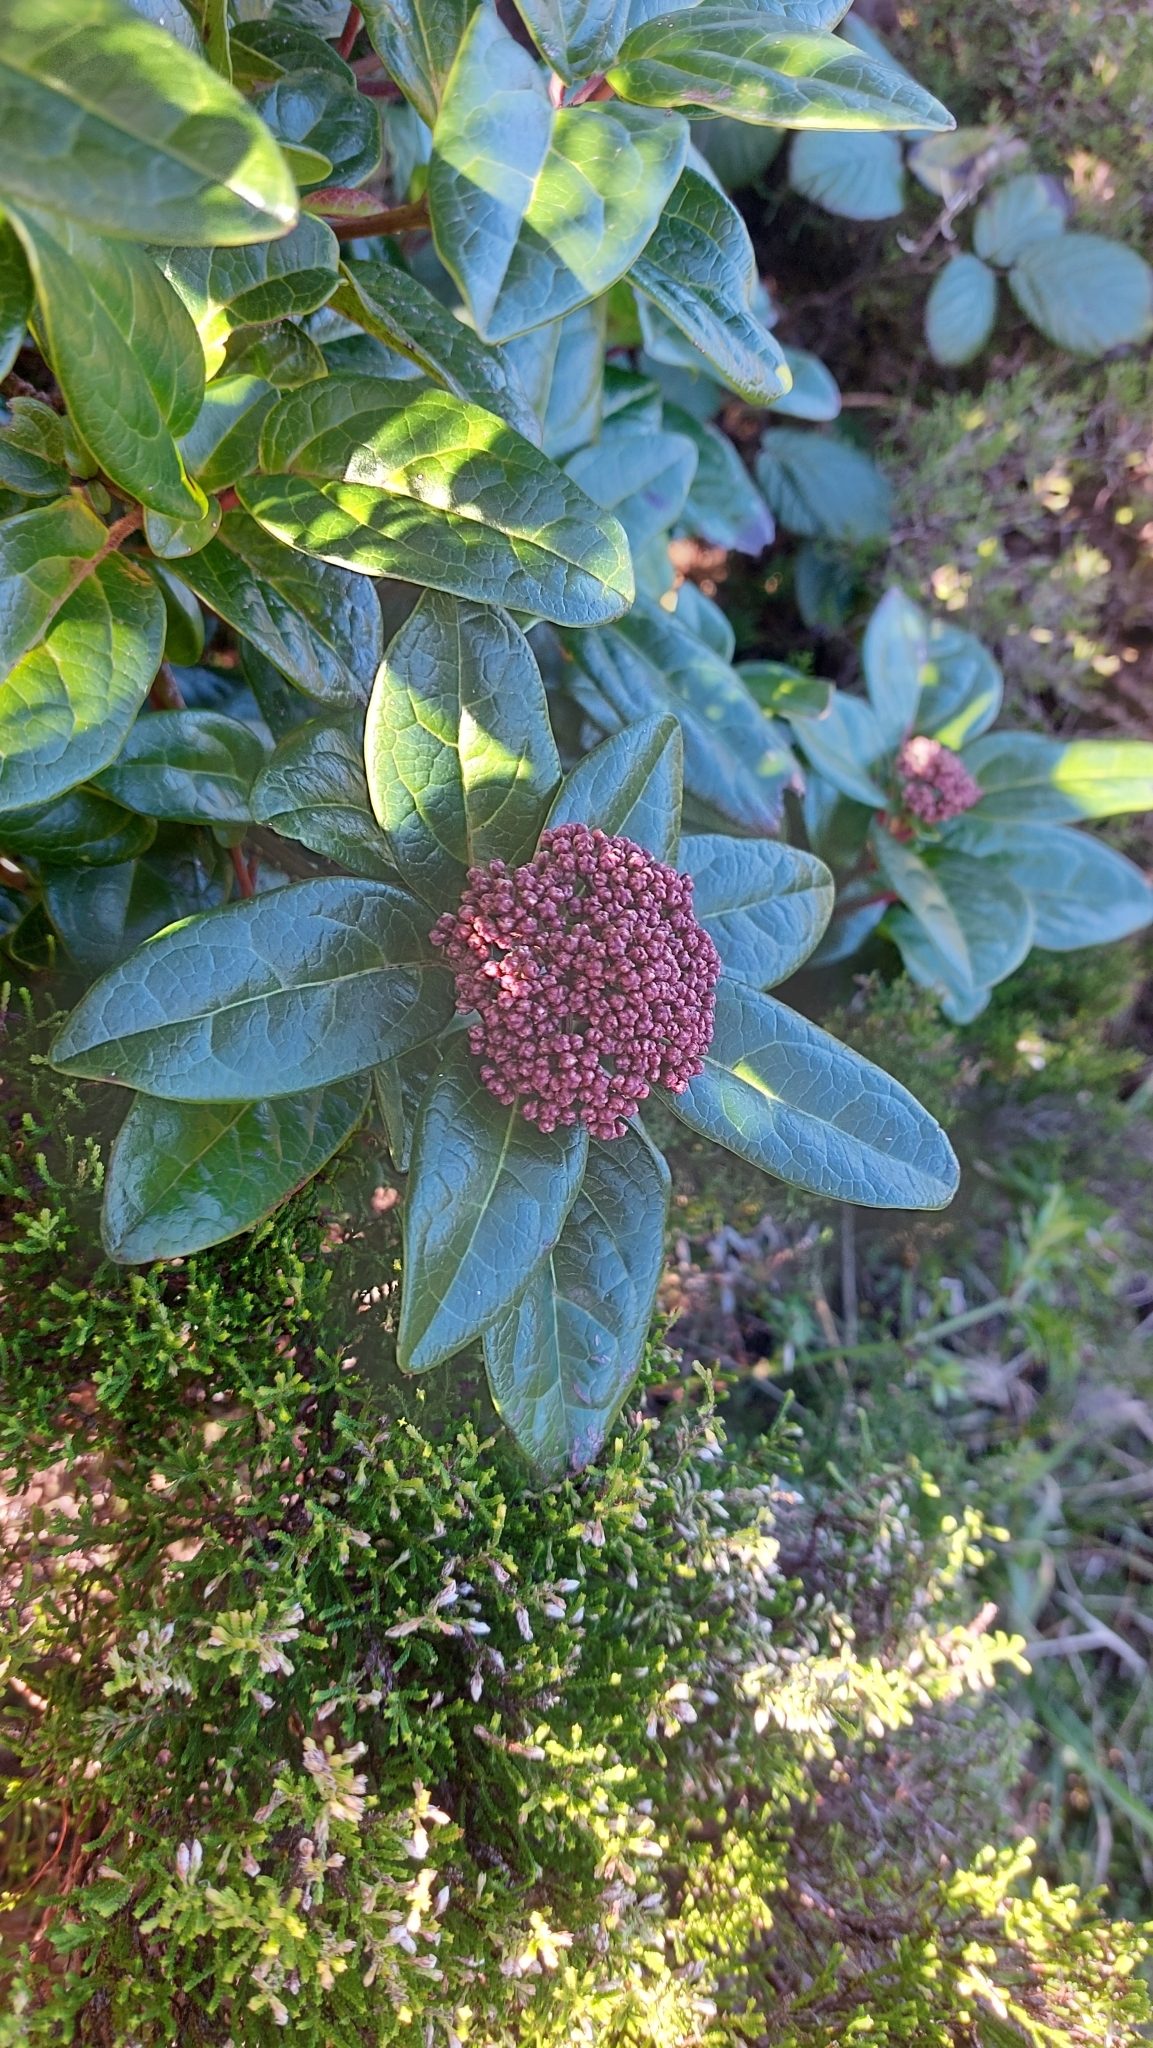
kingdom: Plantae
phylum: Tracheophyta
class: Magnoliopsida
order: Dipsacales
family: Viburnaceae
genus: Viburnum
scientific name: Viburnum treleasei
